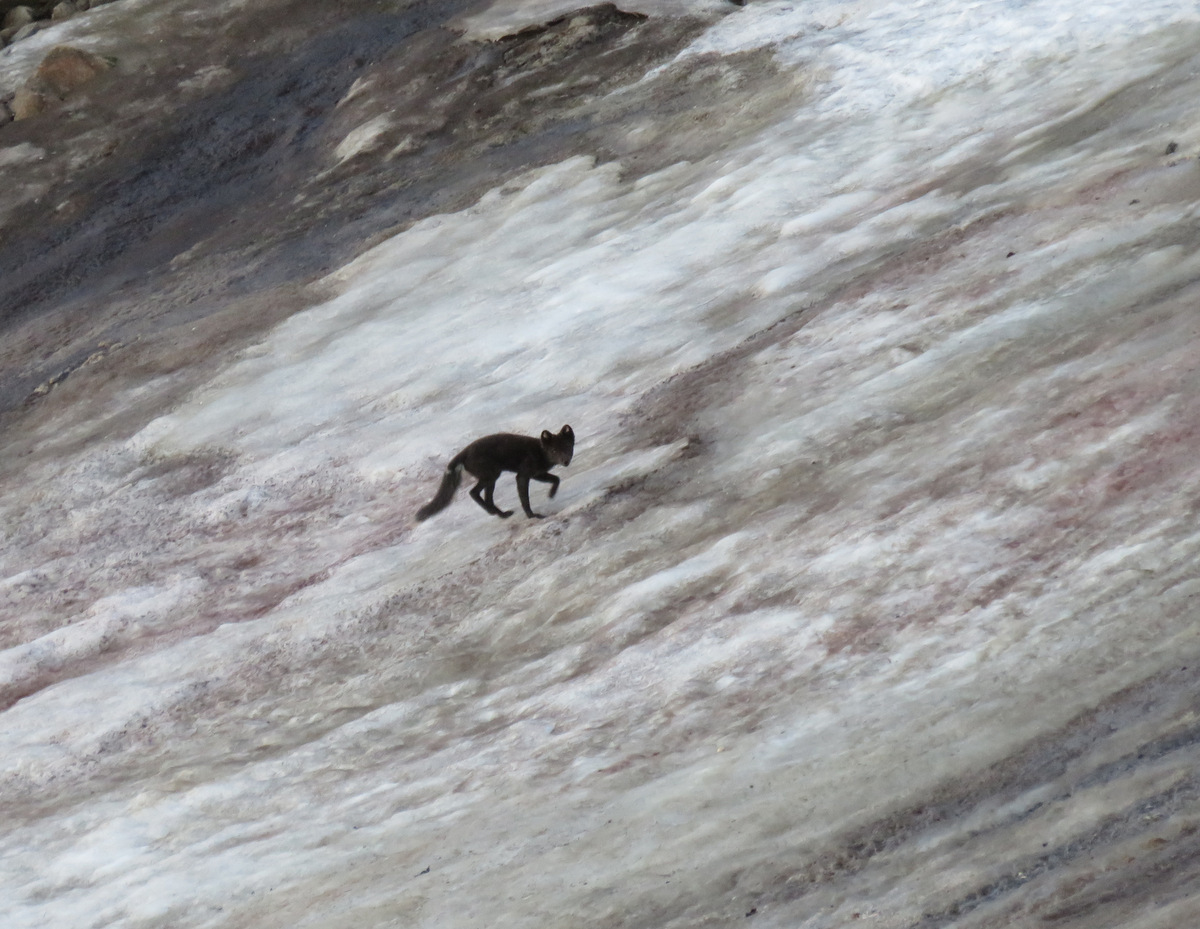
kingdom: Animalia
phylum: Chordata
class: Mammalia
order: Carnivora
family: Canidae
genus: Vulpes
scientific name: Vulpes lagopus
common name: Arctic fox
